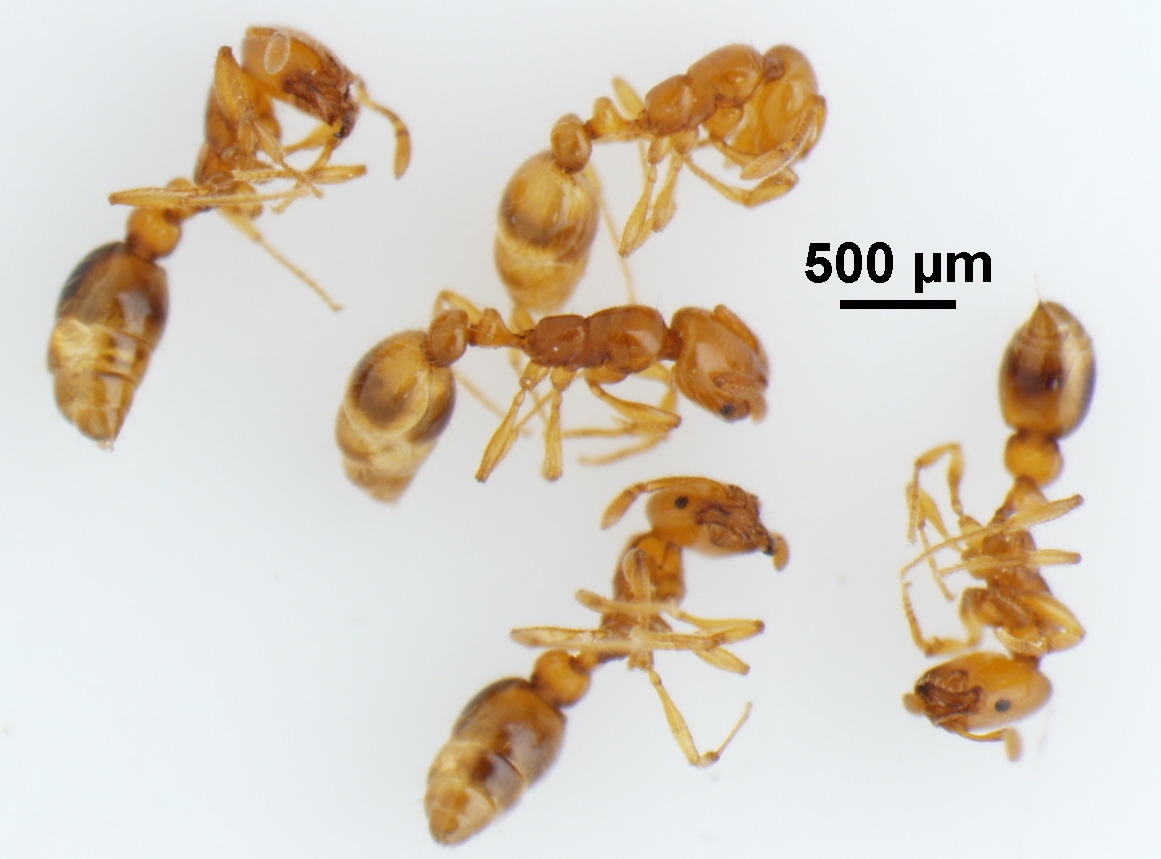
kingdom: Animalia
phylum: Arthropoda
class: Insecta
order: Hymenoptera
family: Formicidae
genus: Solenopsis
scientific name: Solenopsis globularia
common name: Ant
